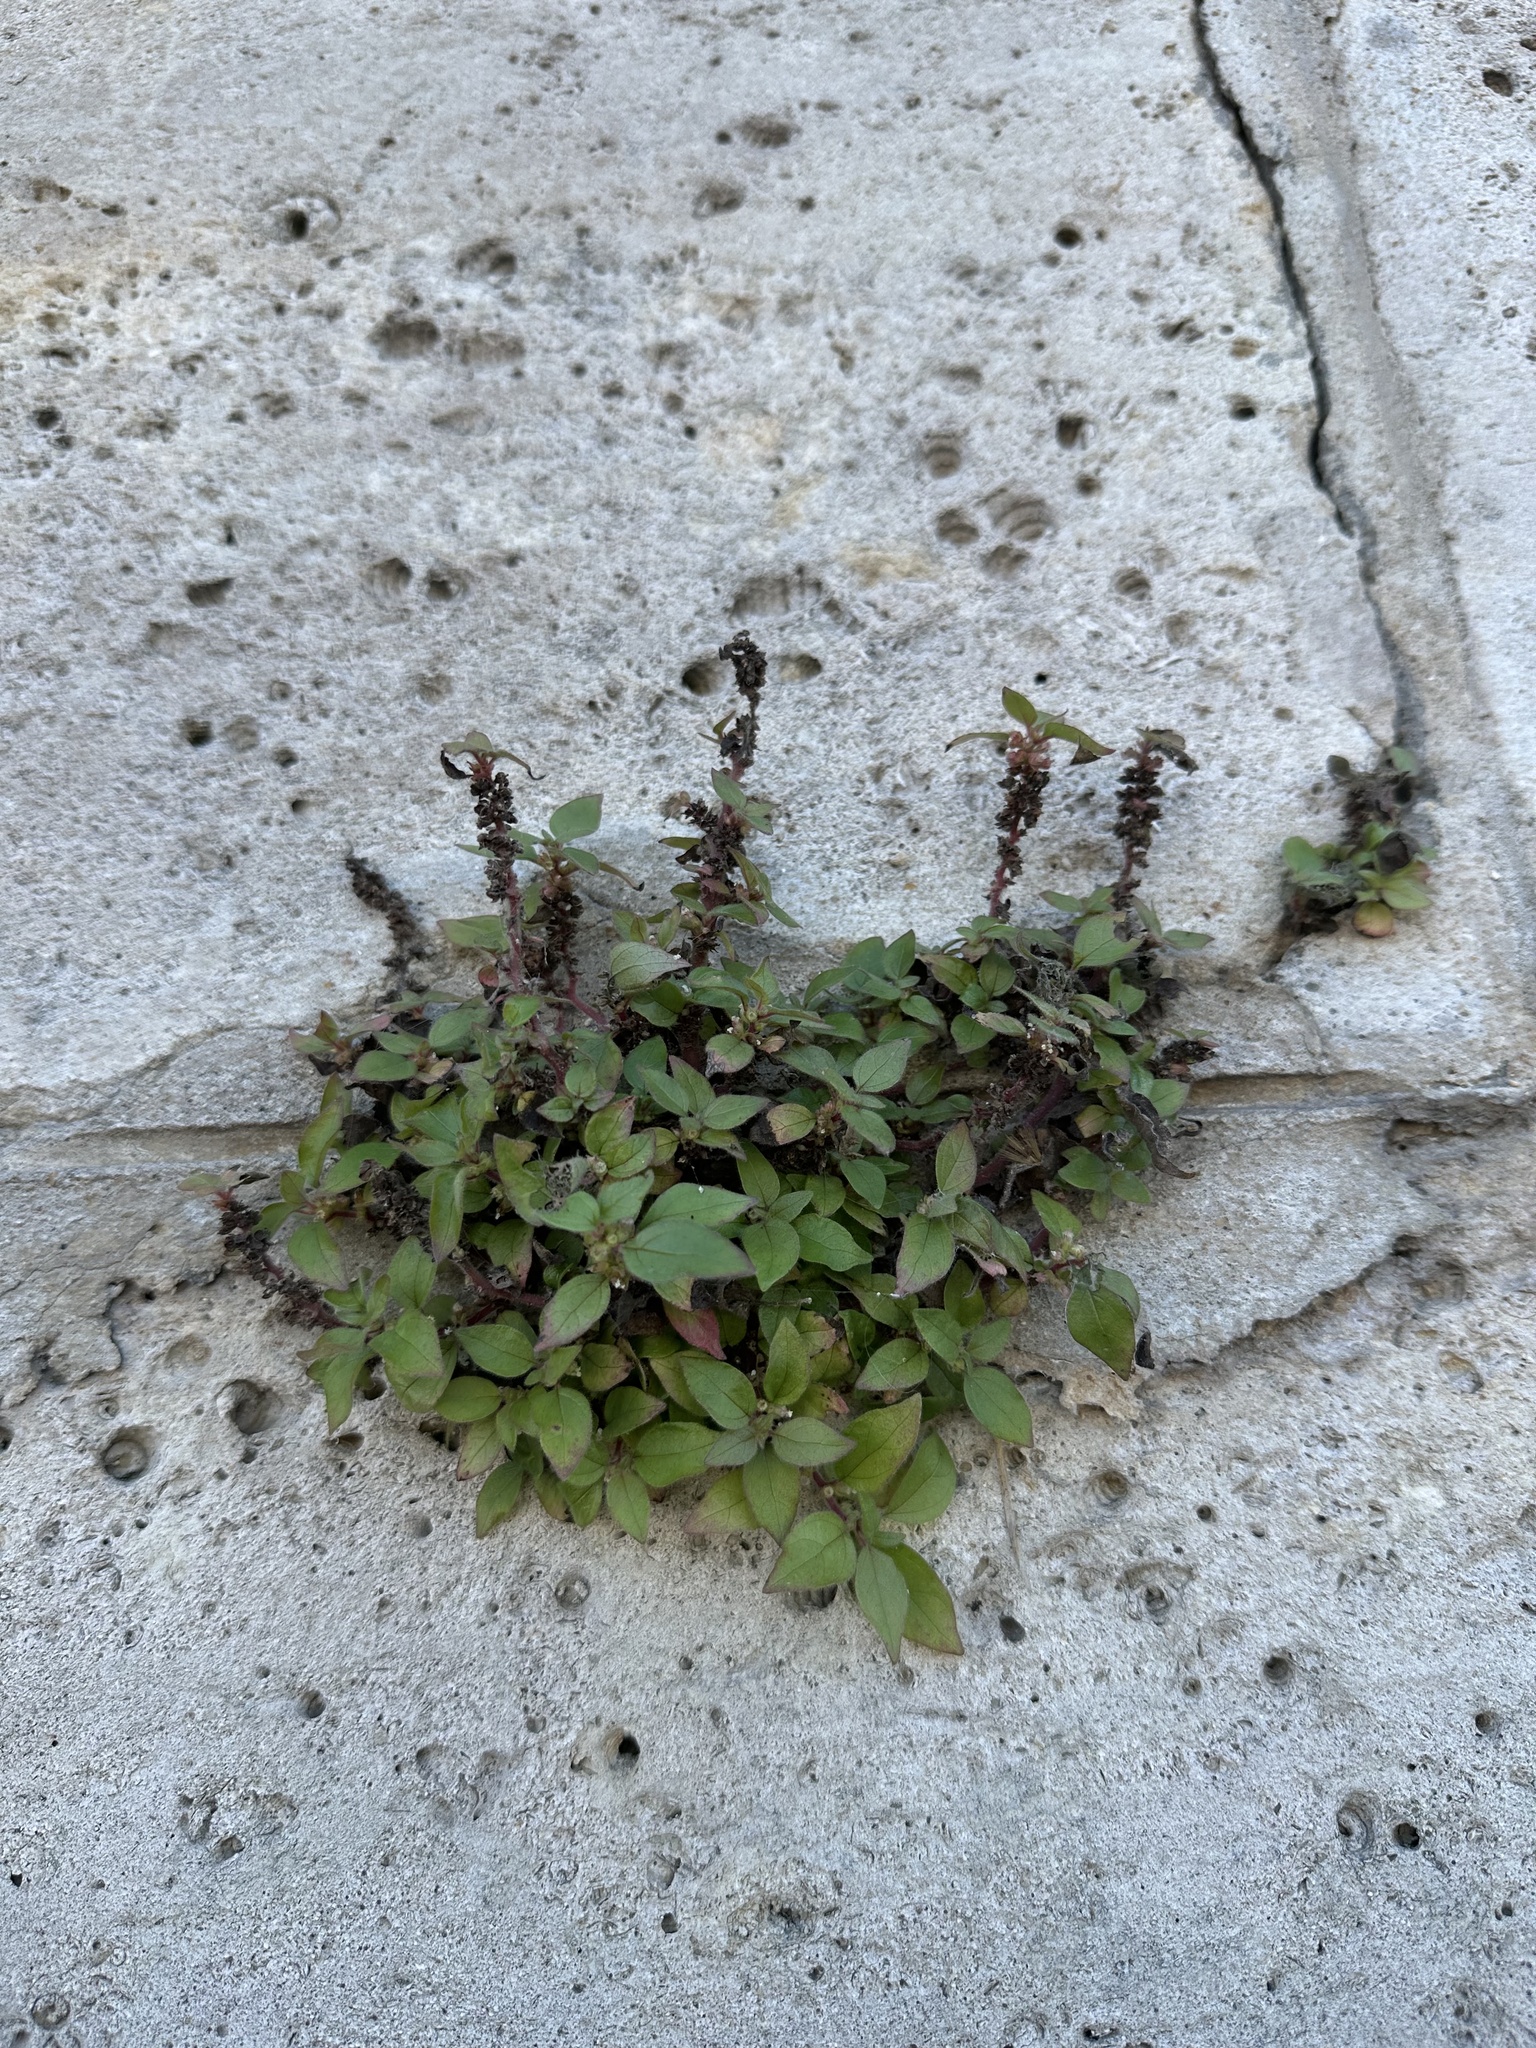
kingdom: Plantae
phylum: Tracheophyta
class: Magnoliopsida
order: Rosales
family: Urticaceae
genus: Parietaria
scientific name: Parietaria judaica
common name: Pellitory-of-the-wall
